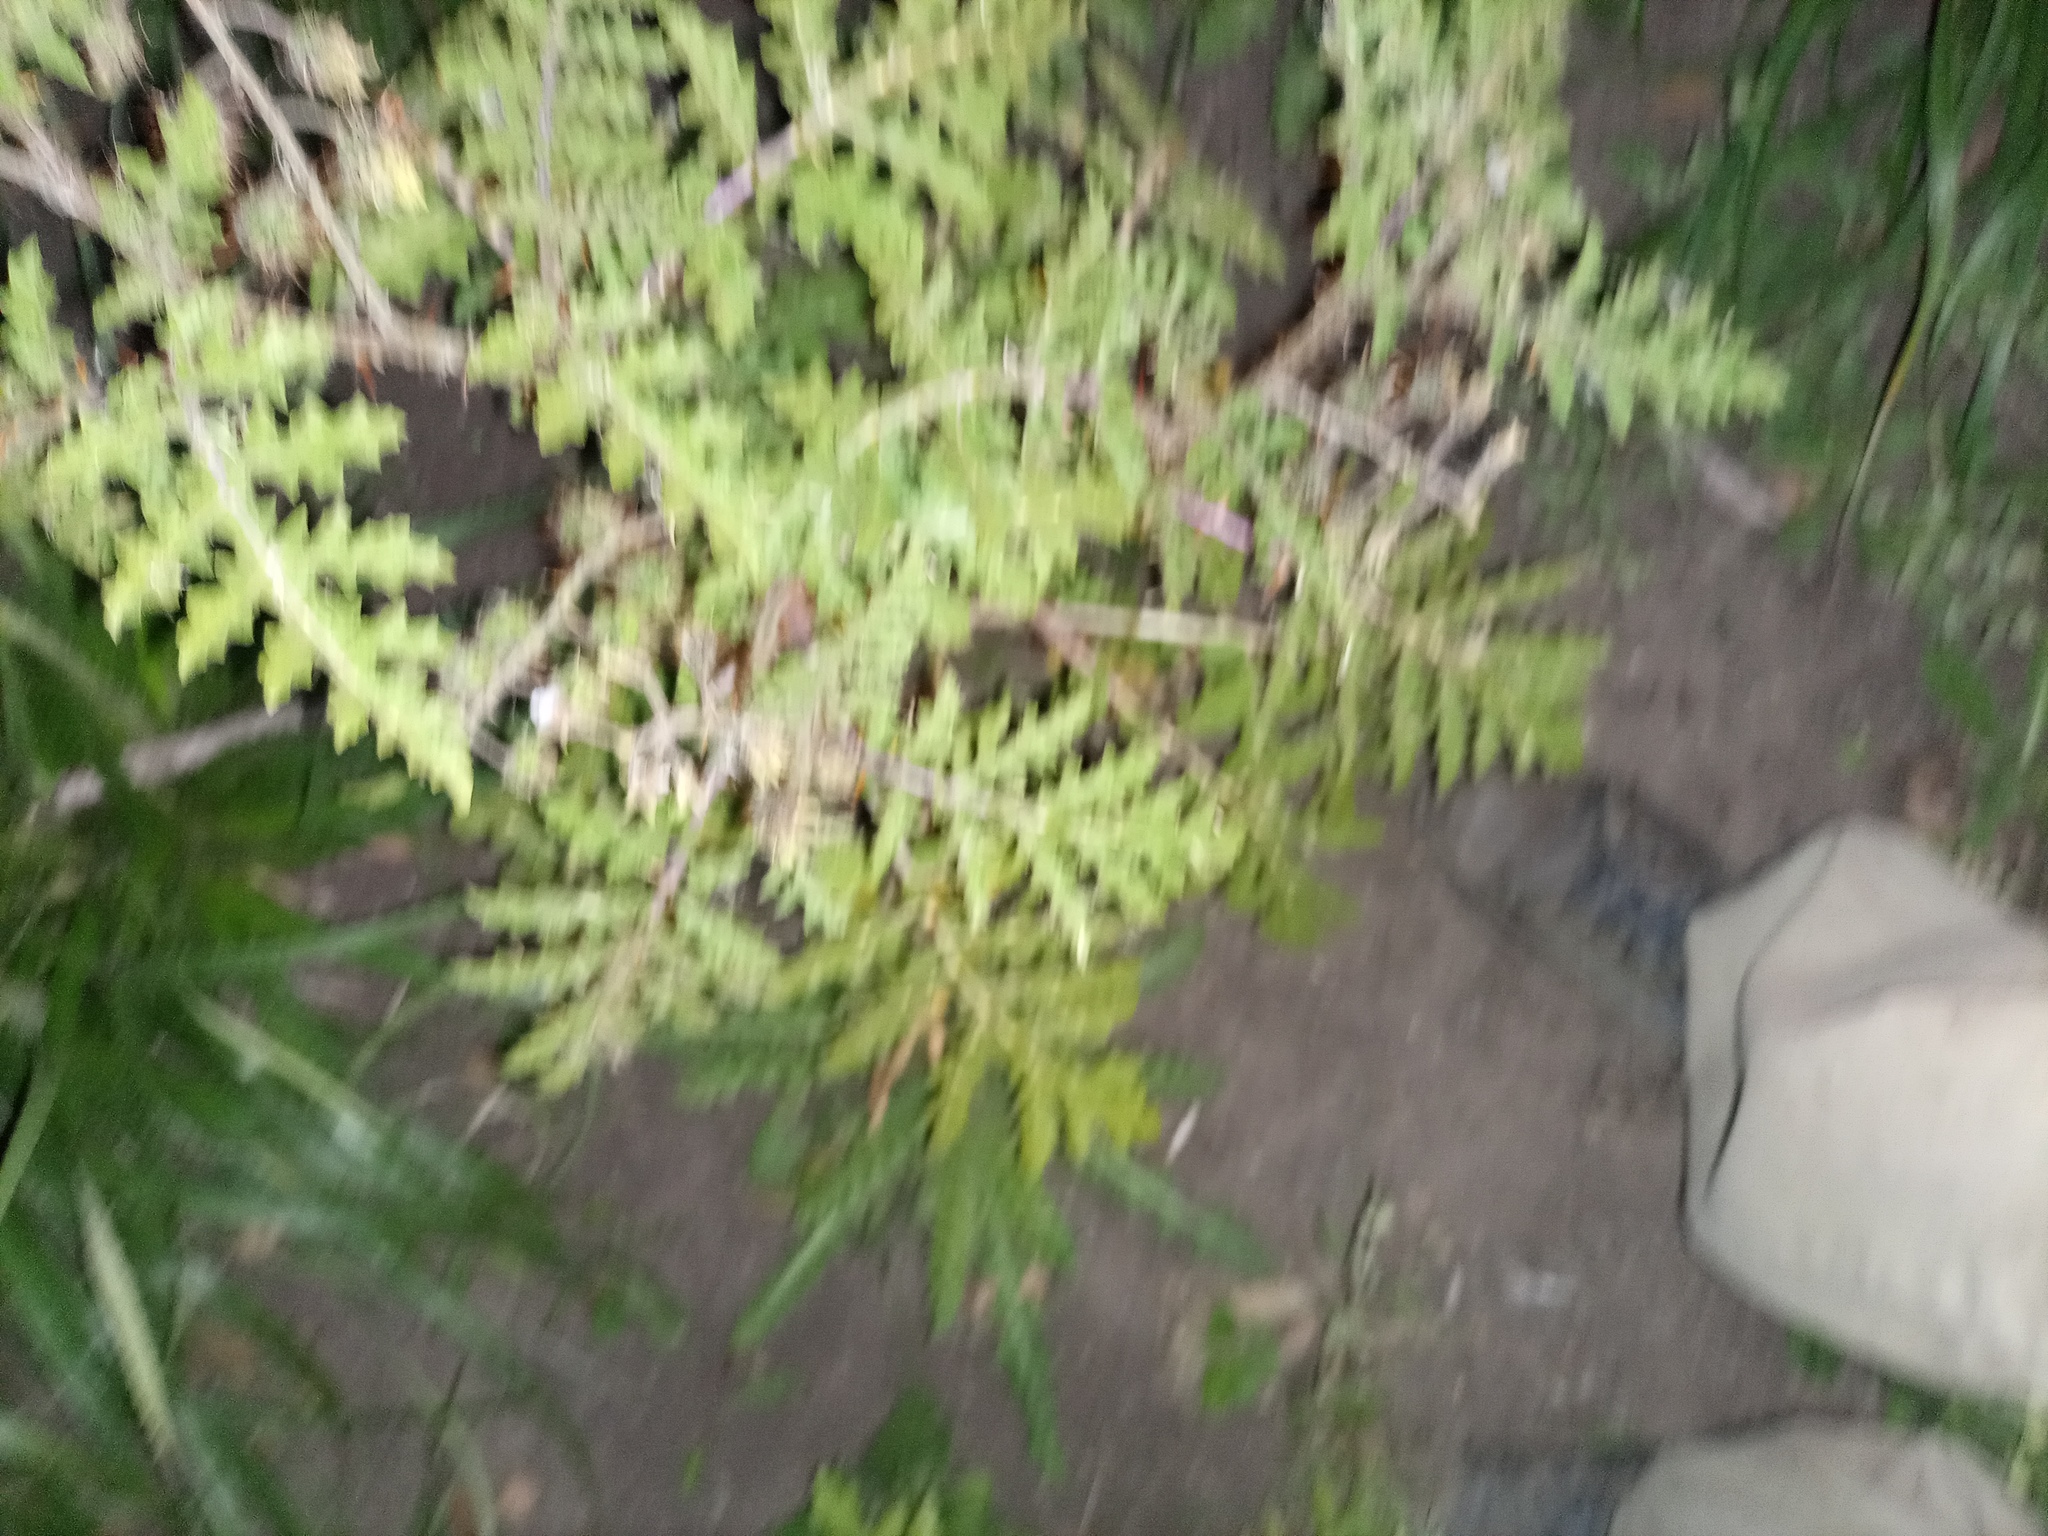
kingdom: Plantae
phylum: Tracheophyta
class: Magnoliopsida
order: Solanales
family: Solanaceae
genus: Solanum
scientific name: Solanum sisymbriifolium
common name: Red buffalo-bur
